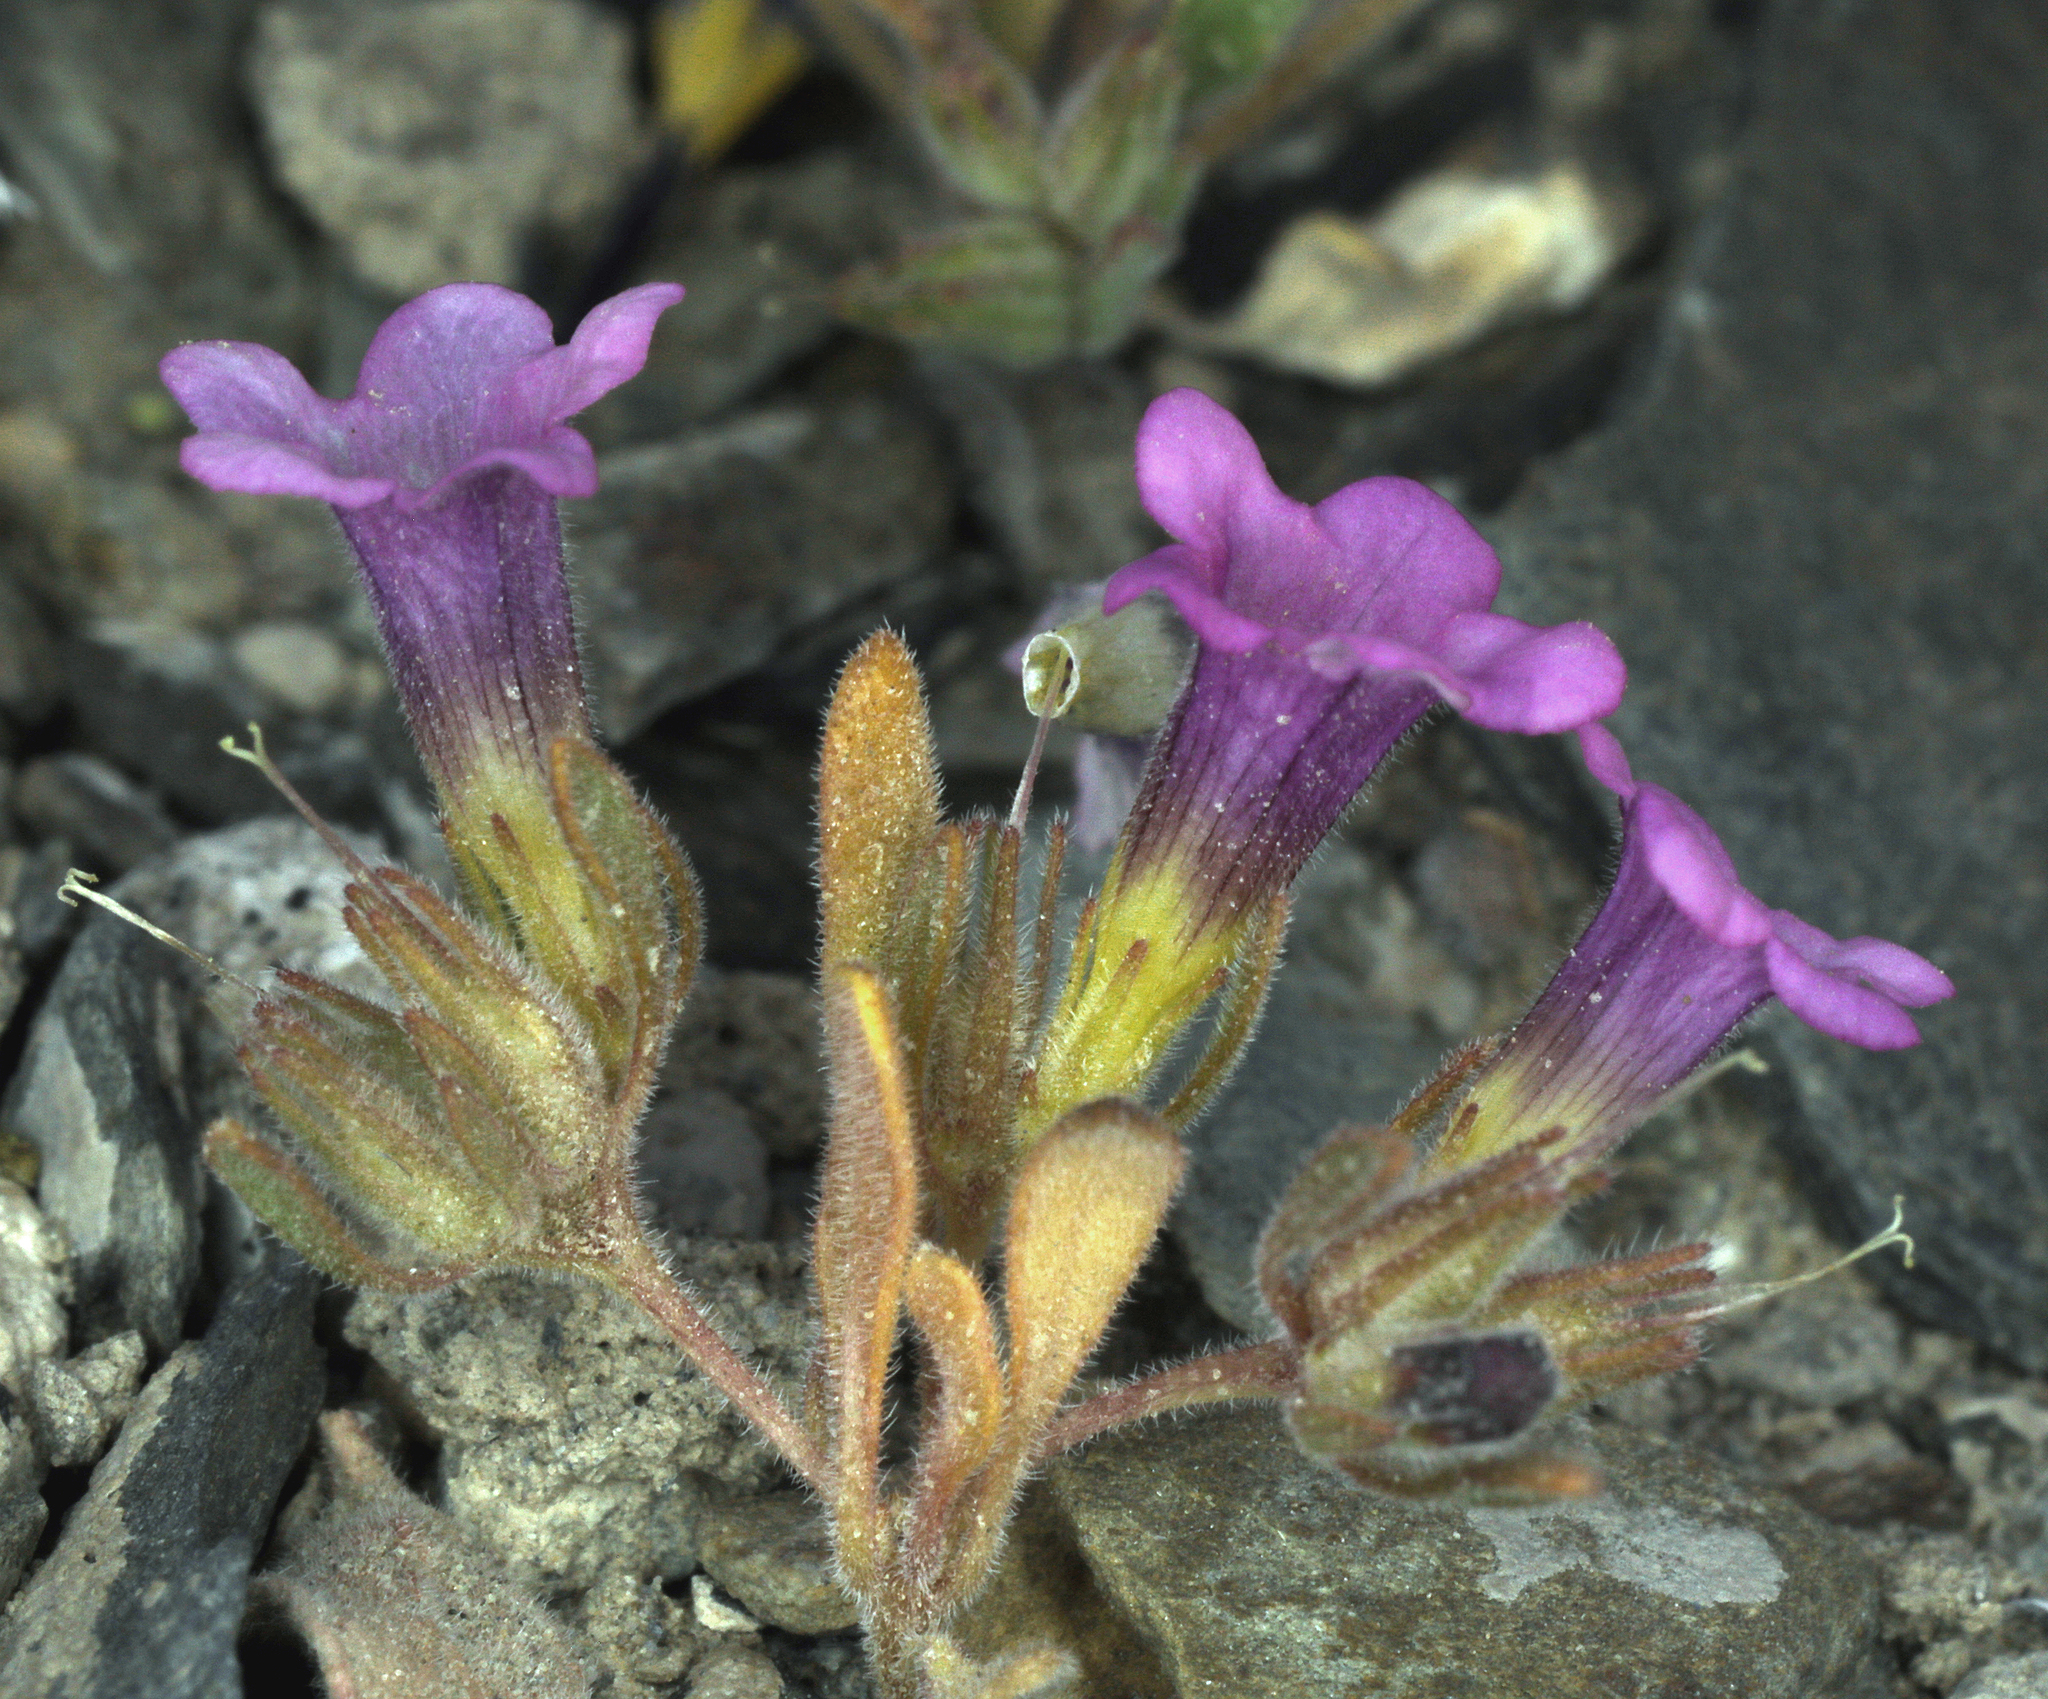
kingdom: Plantae
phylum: Tracheophyta
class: Magnoliopsida
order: Boraginales
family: Namaceae
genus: Nama
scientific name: Nama aretioides
